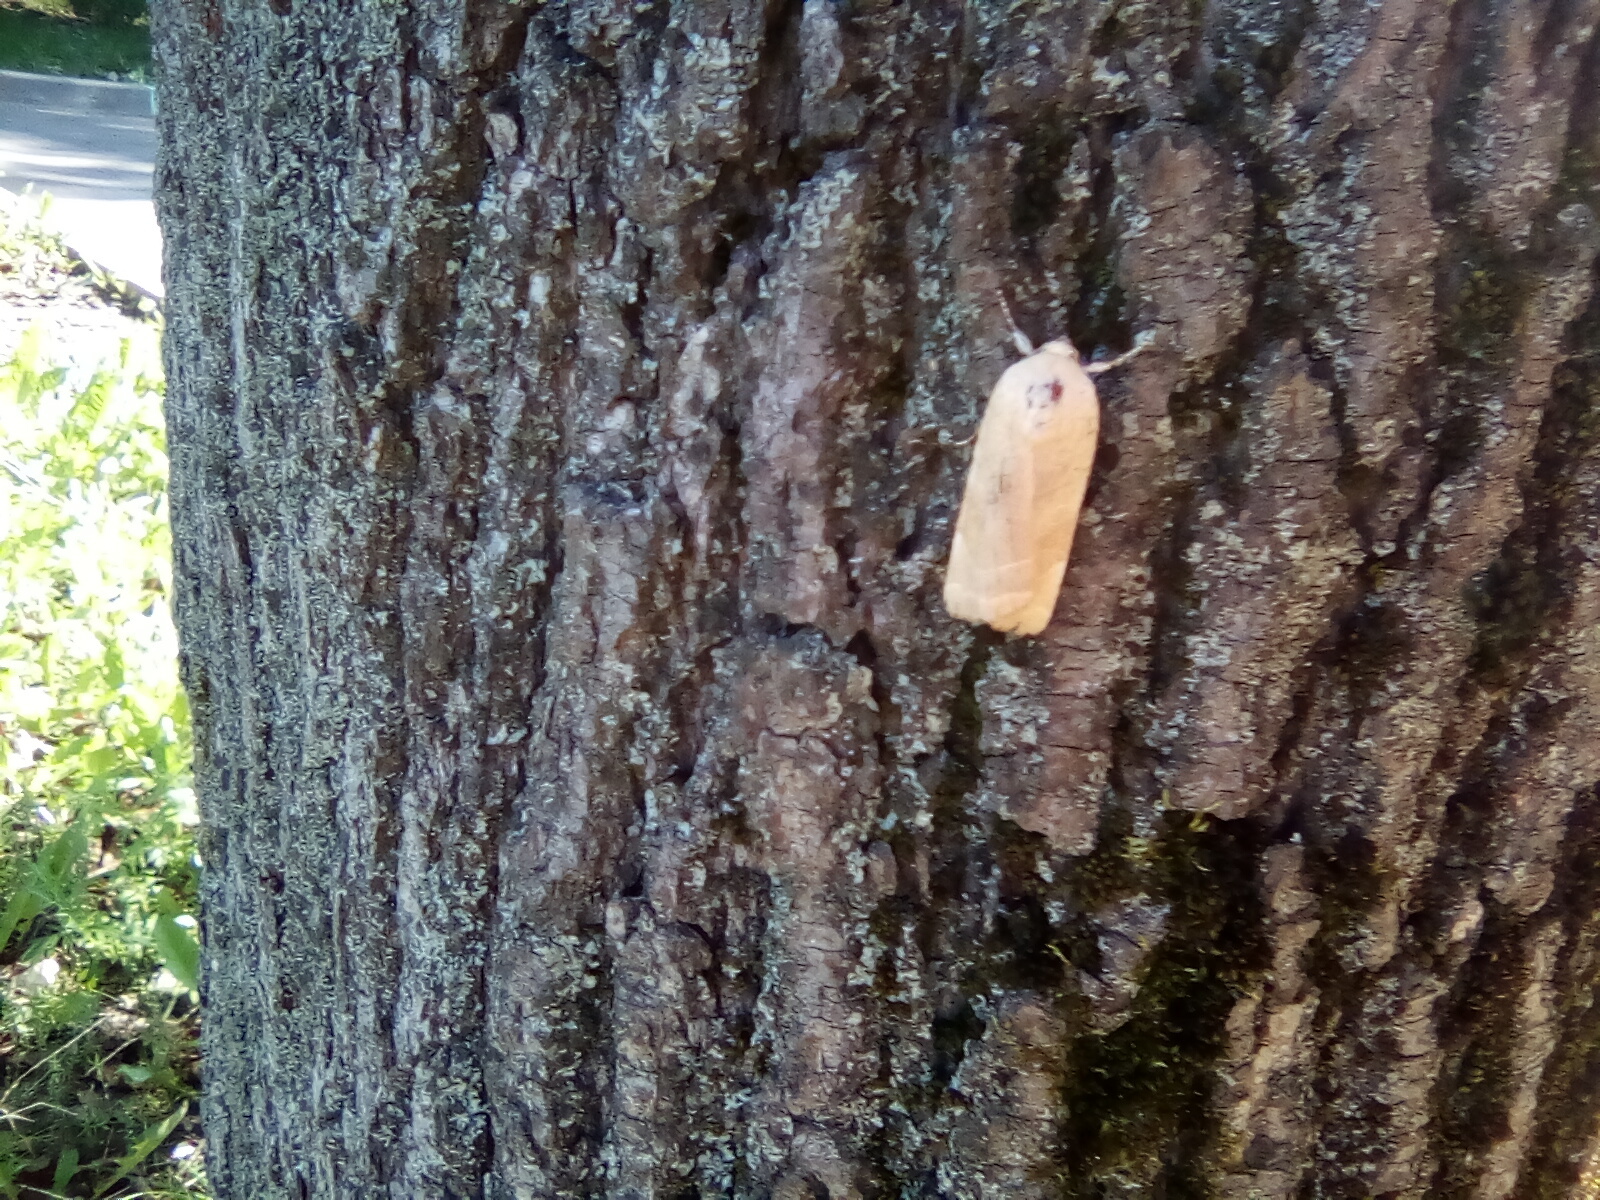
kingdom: Animalia
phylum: Arthropoda
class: Insecta
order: Lepidoptera
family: Noctuidae
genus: Noctua
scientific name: Noctua fimbriata
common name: Broad-bordered yellow underwing
